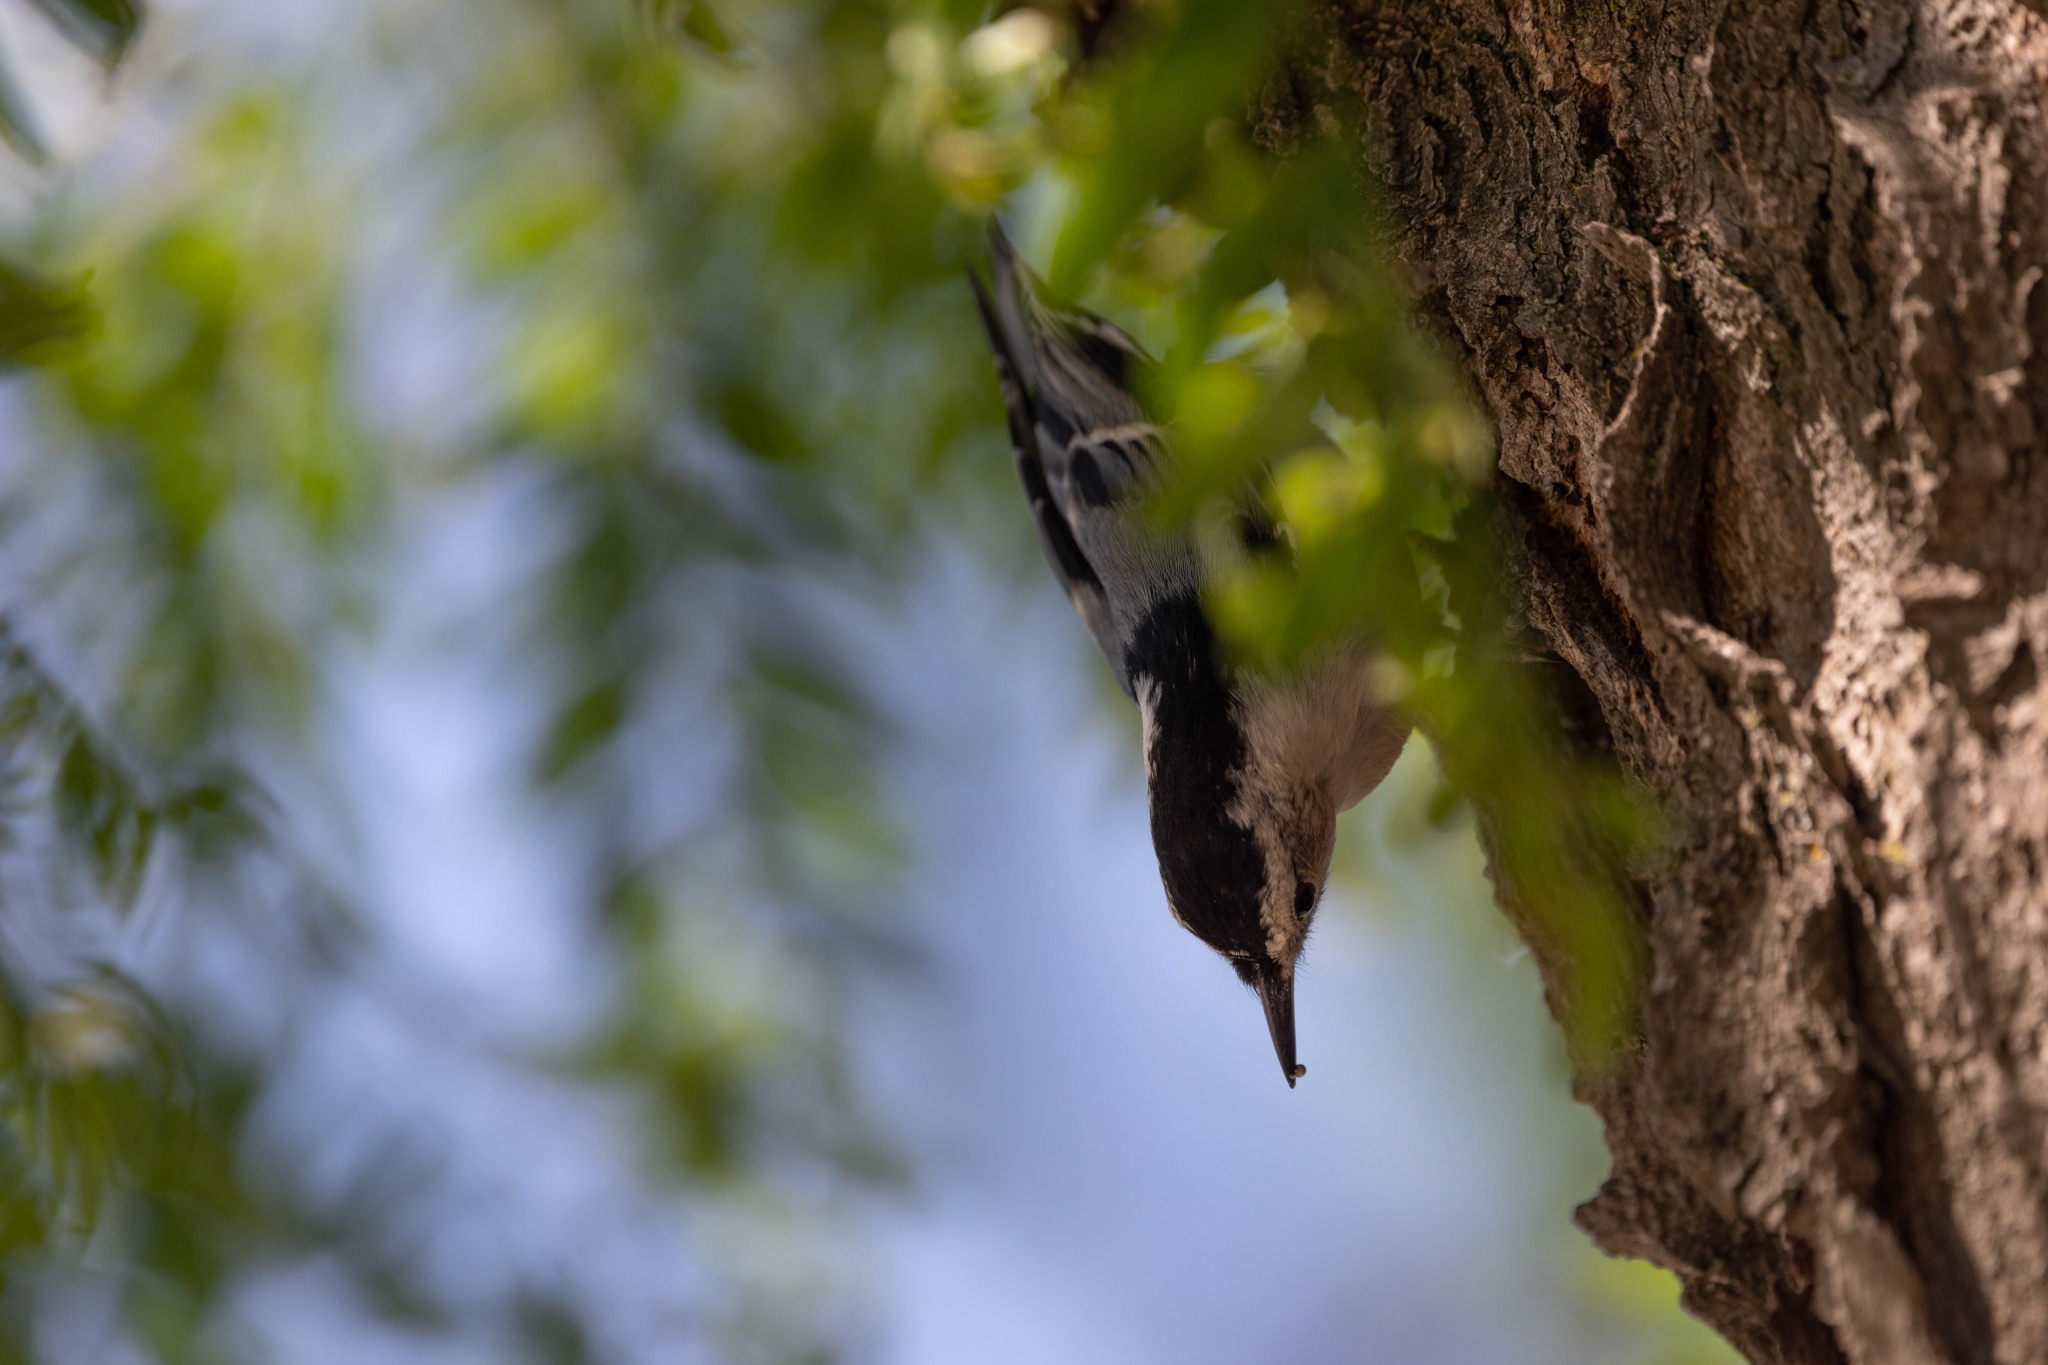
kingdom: Animalia
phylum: Chordata
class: Aves
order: Passeriformes
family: Sittidae
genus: Sitta
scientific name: Sitta carolinensis
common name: White-breasted nuthatch
